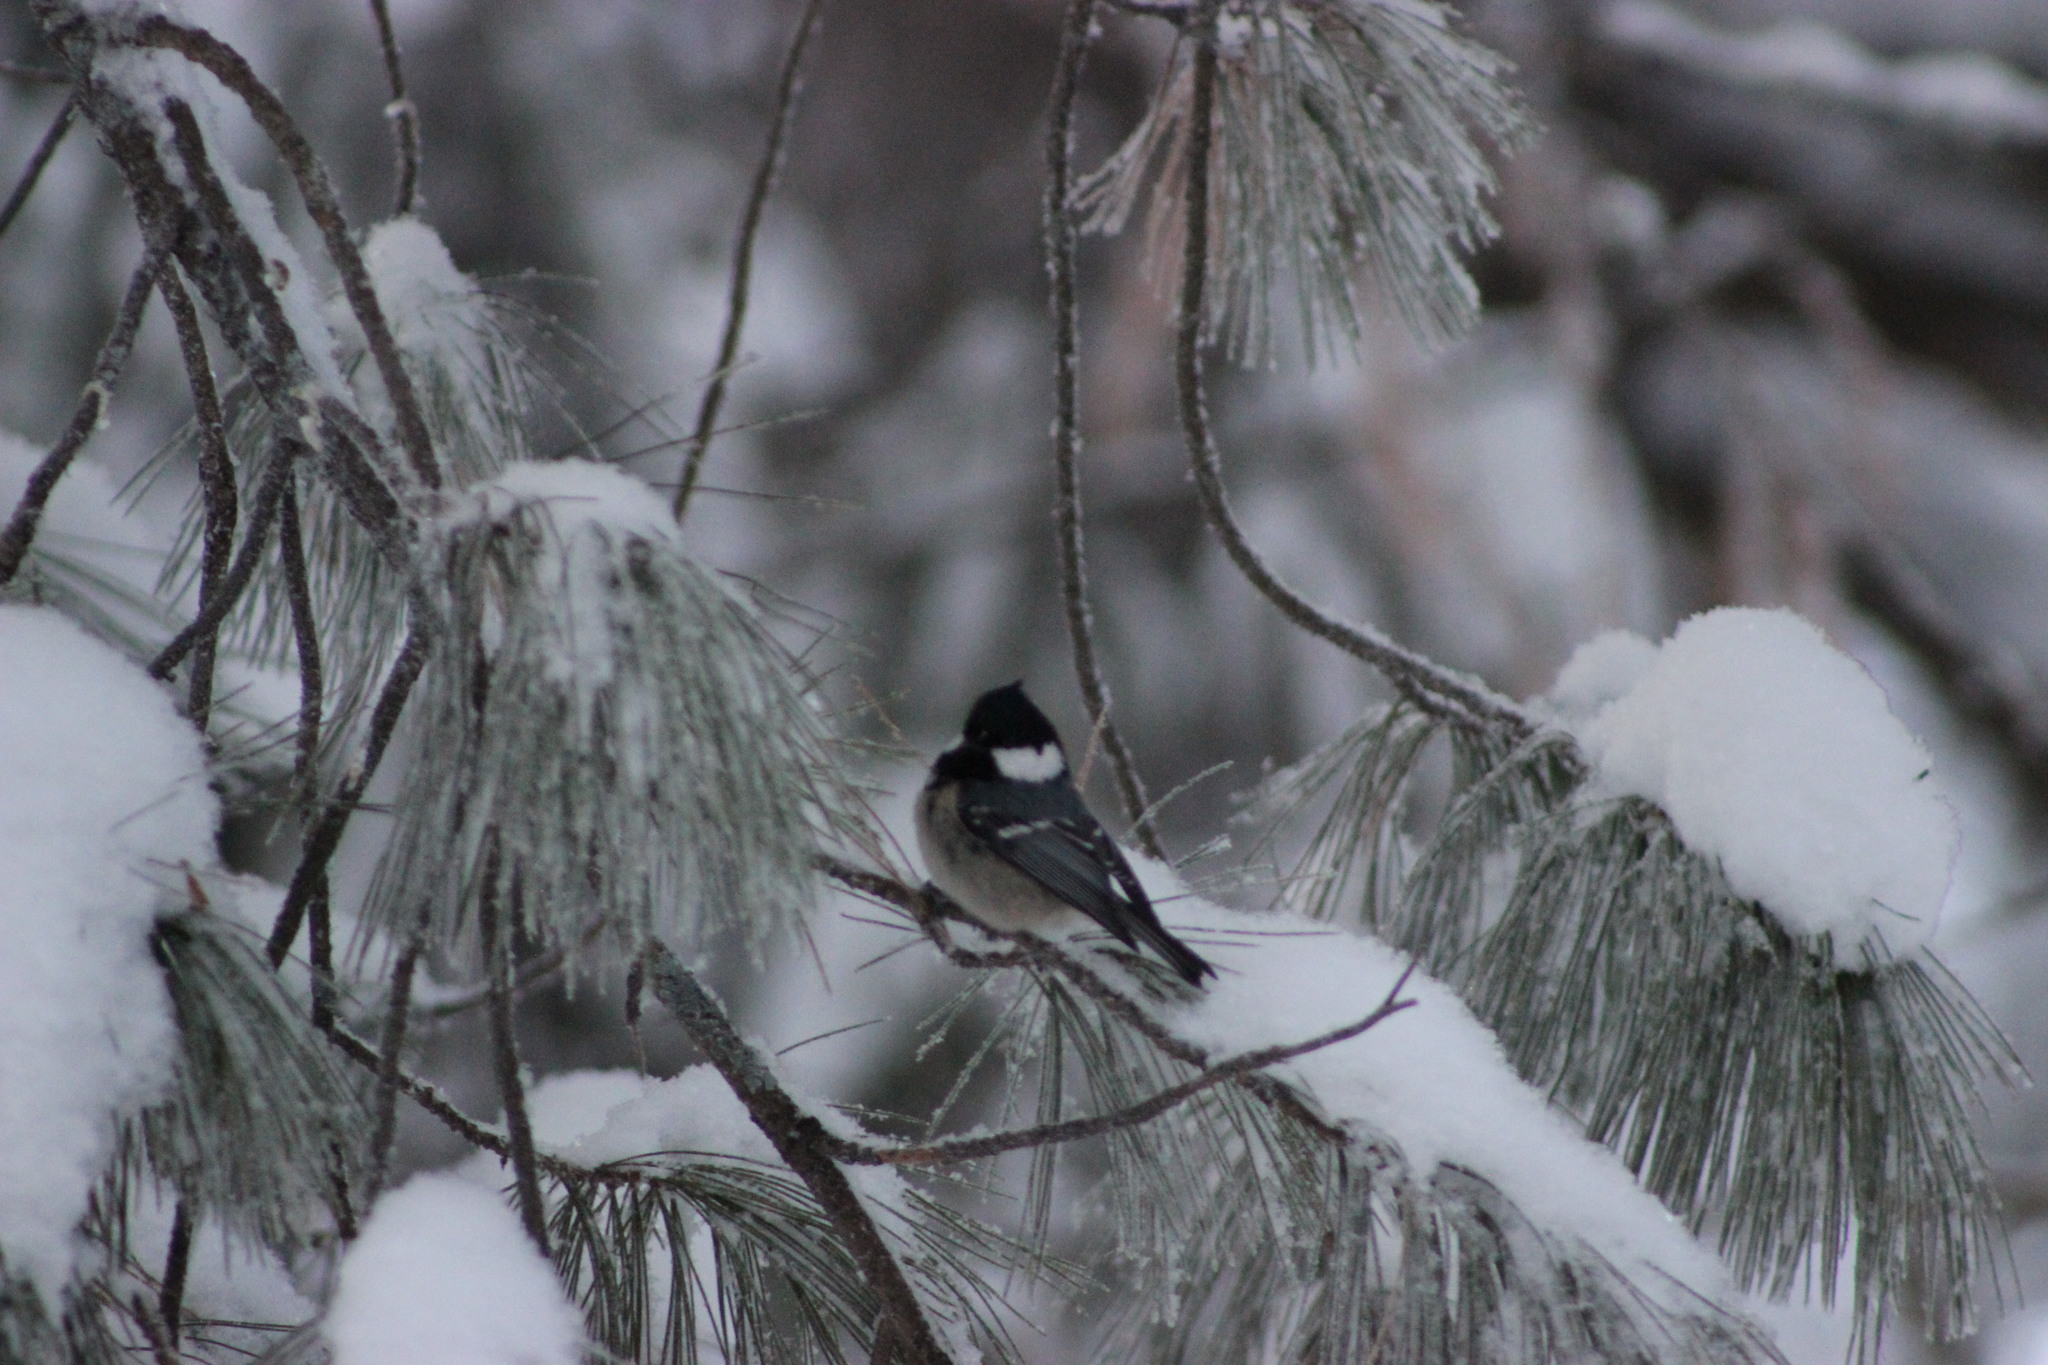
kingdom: Animalia
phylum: Chordata
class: Aves
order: Passeriformes
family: Paridae
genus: Periparus
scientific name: Periparus ater
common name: Coal tit
